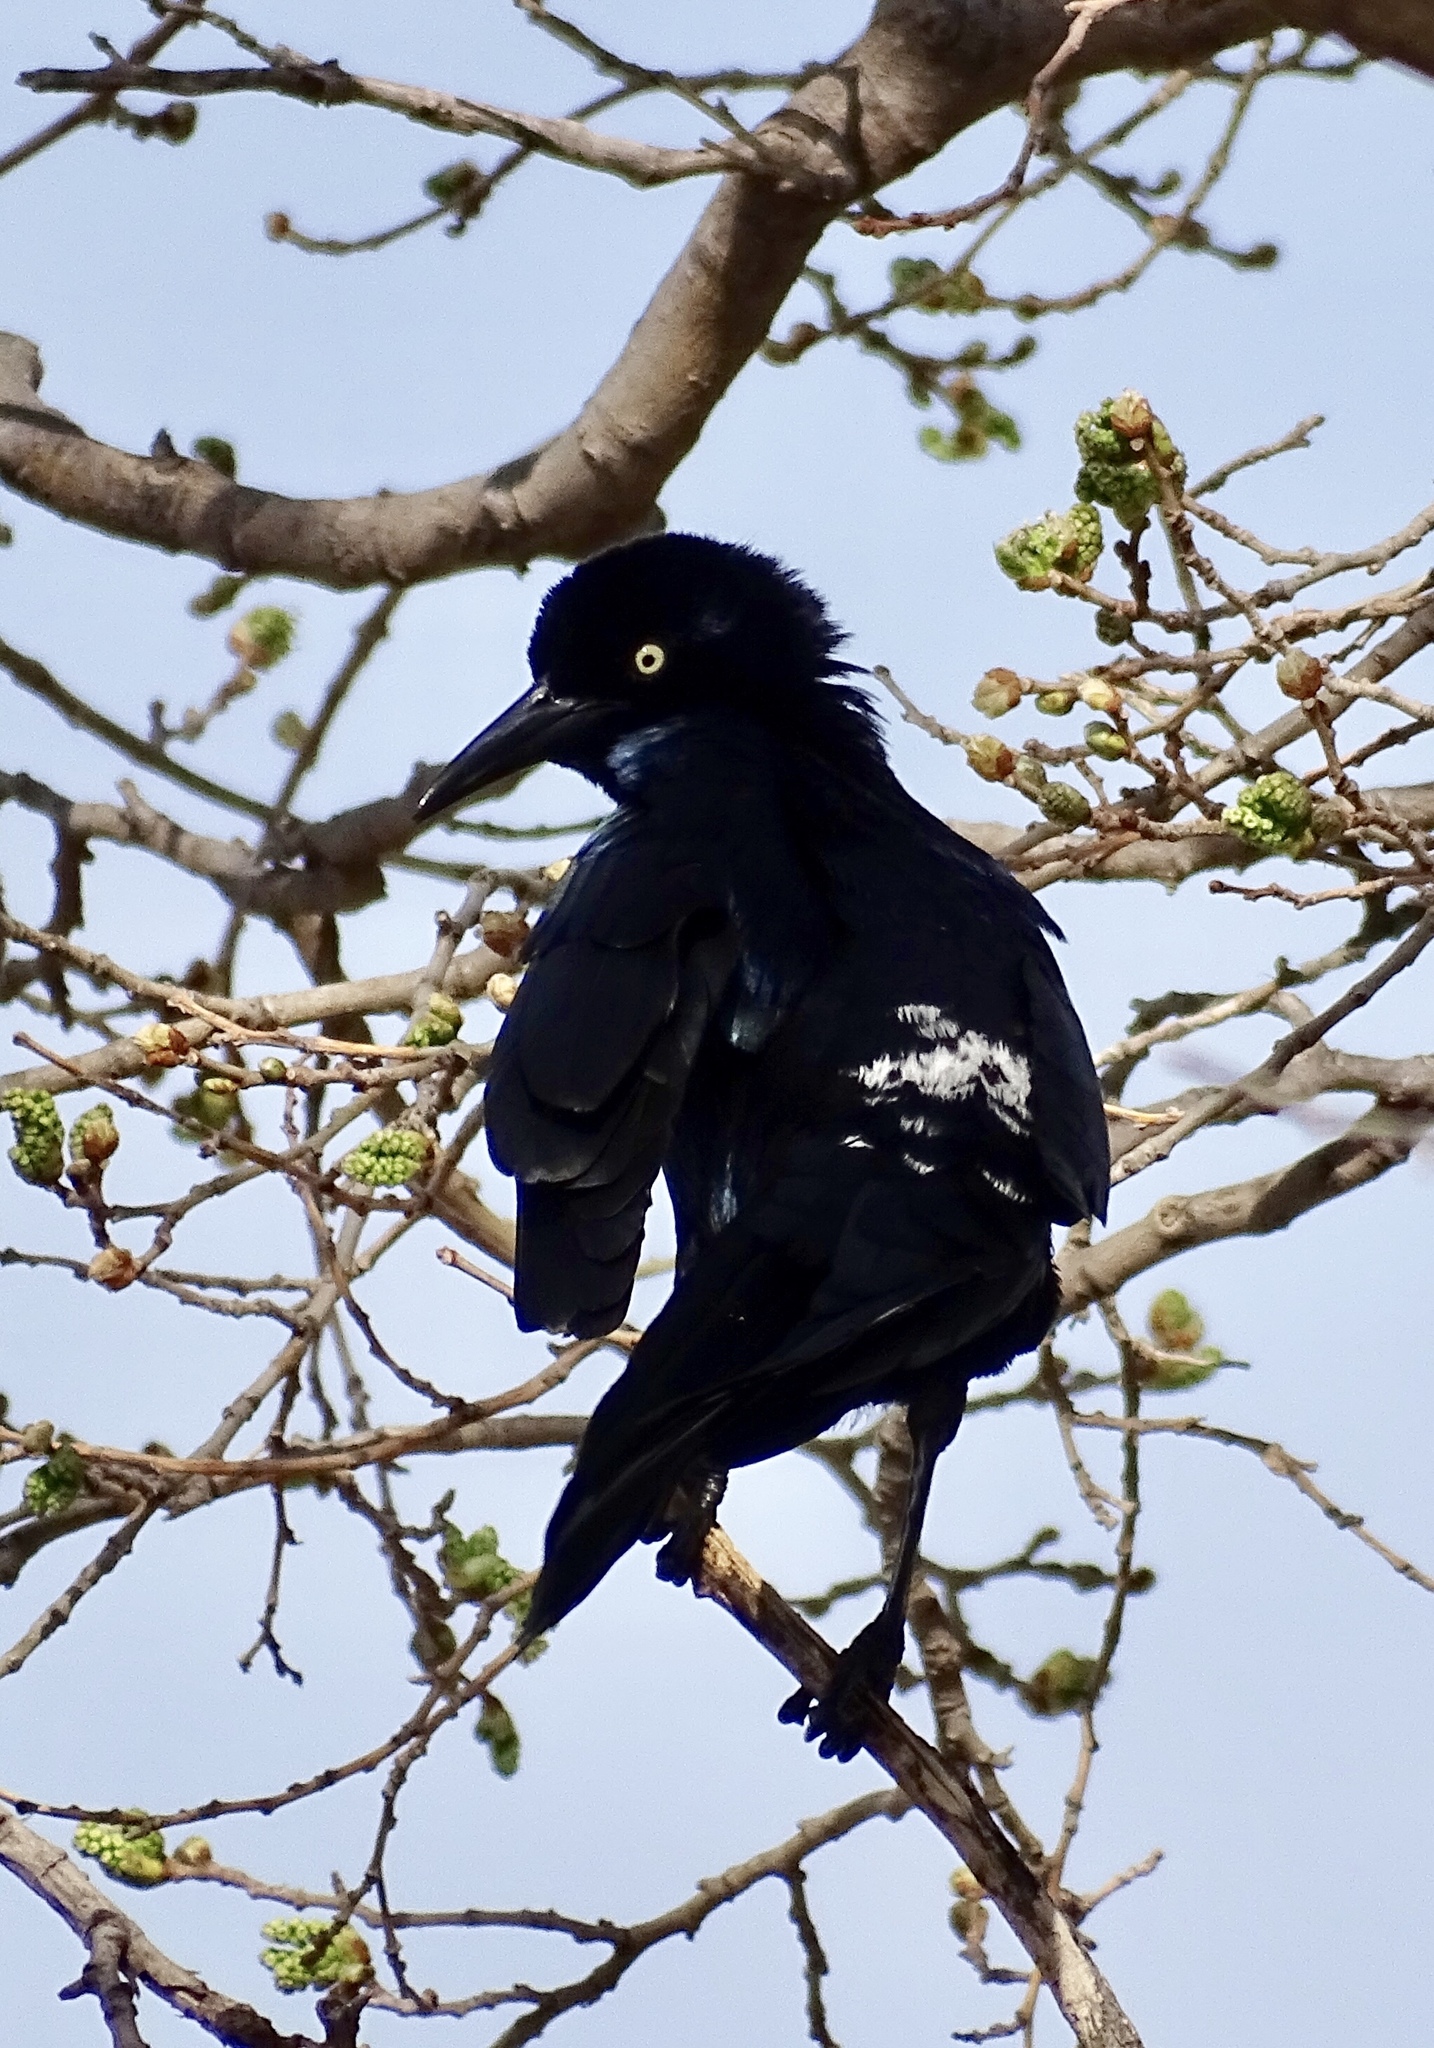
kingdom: Animalia
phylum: Chordata
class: Aves
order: Passeriformes
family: Icteridae
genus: Quiscalus
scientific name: Quiscalus mexicanus
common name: Great-tailed grackle
